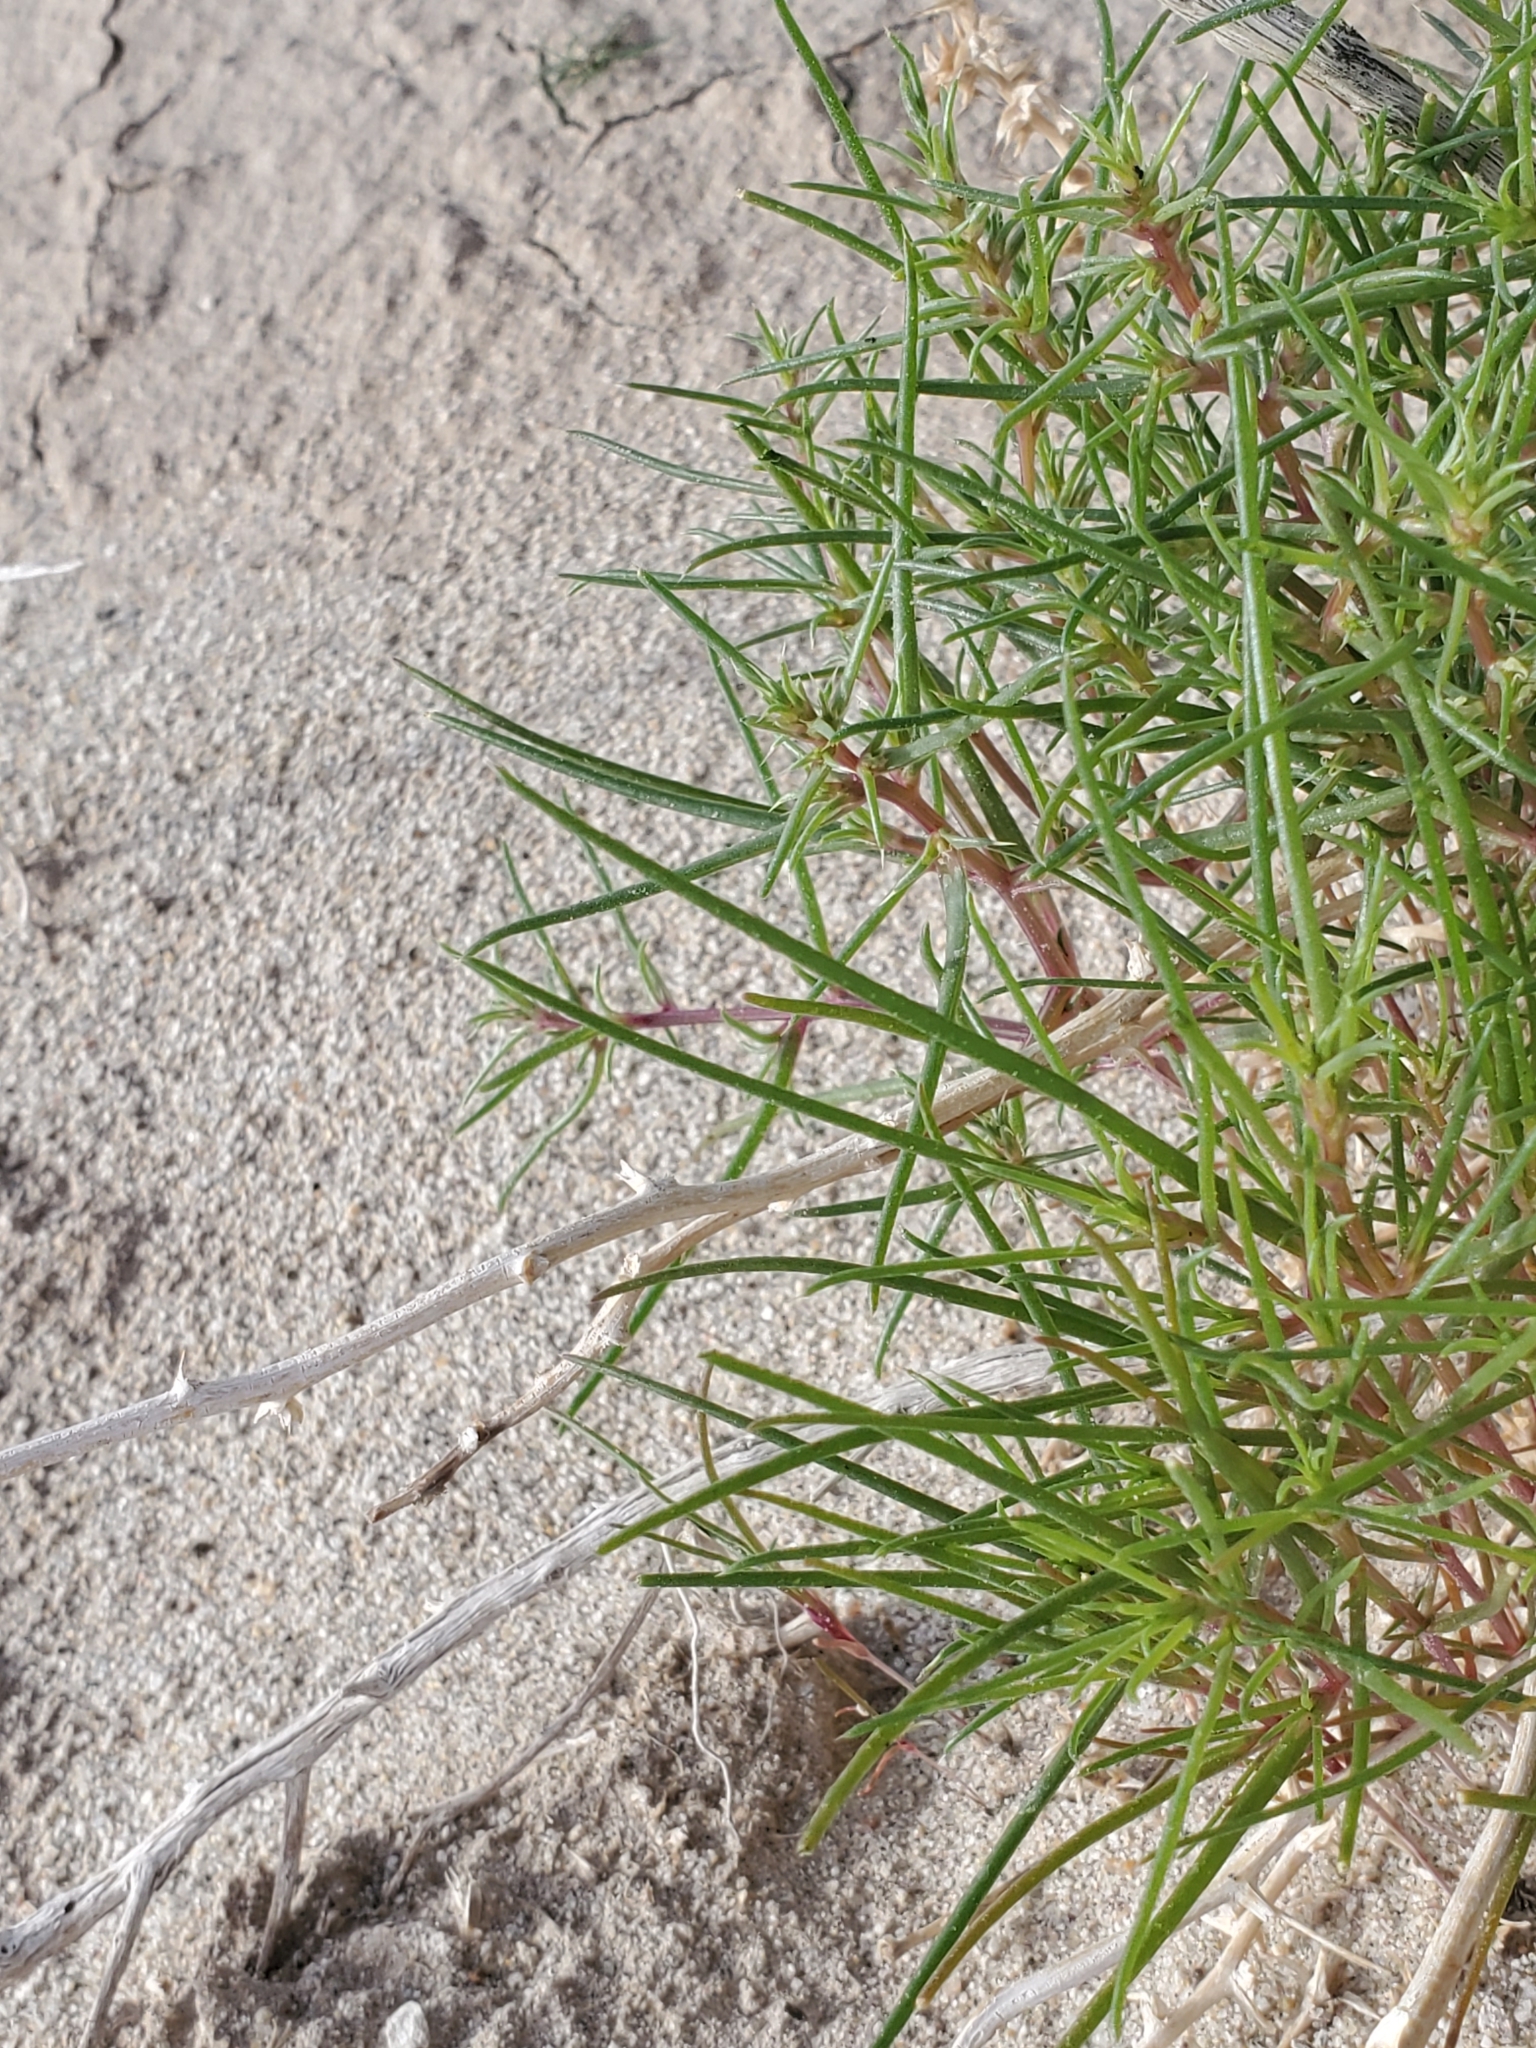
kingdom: Plantae
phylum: Tracheophyta
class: Magnoliopsida
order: Caryophyllales
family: Amaranthaceae
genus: Salsola
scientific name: Salsola tragus
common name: Prickly russian thistle
